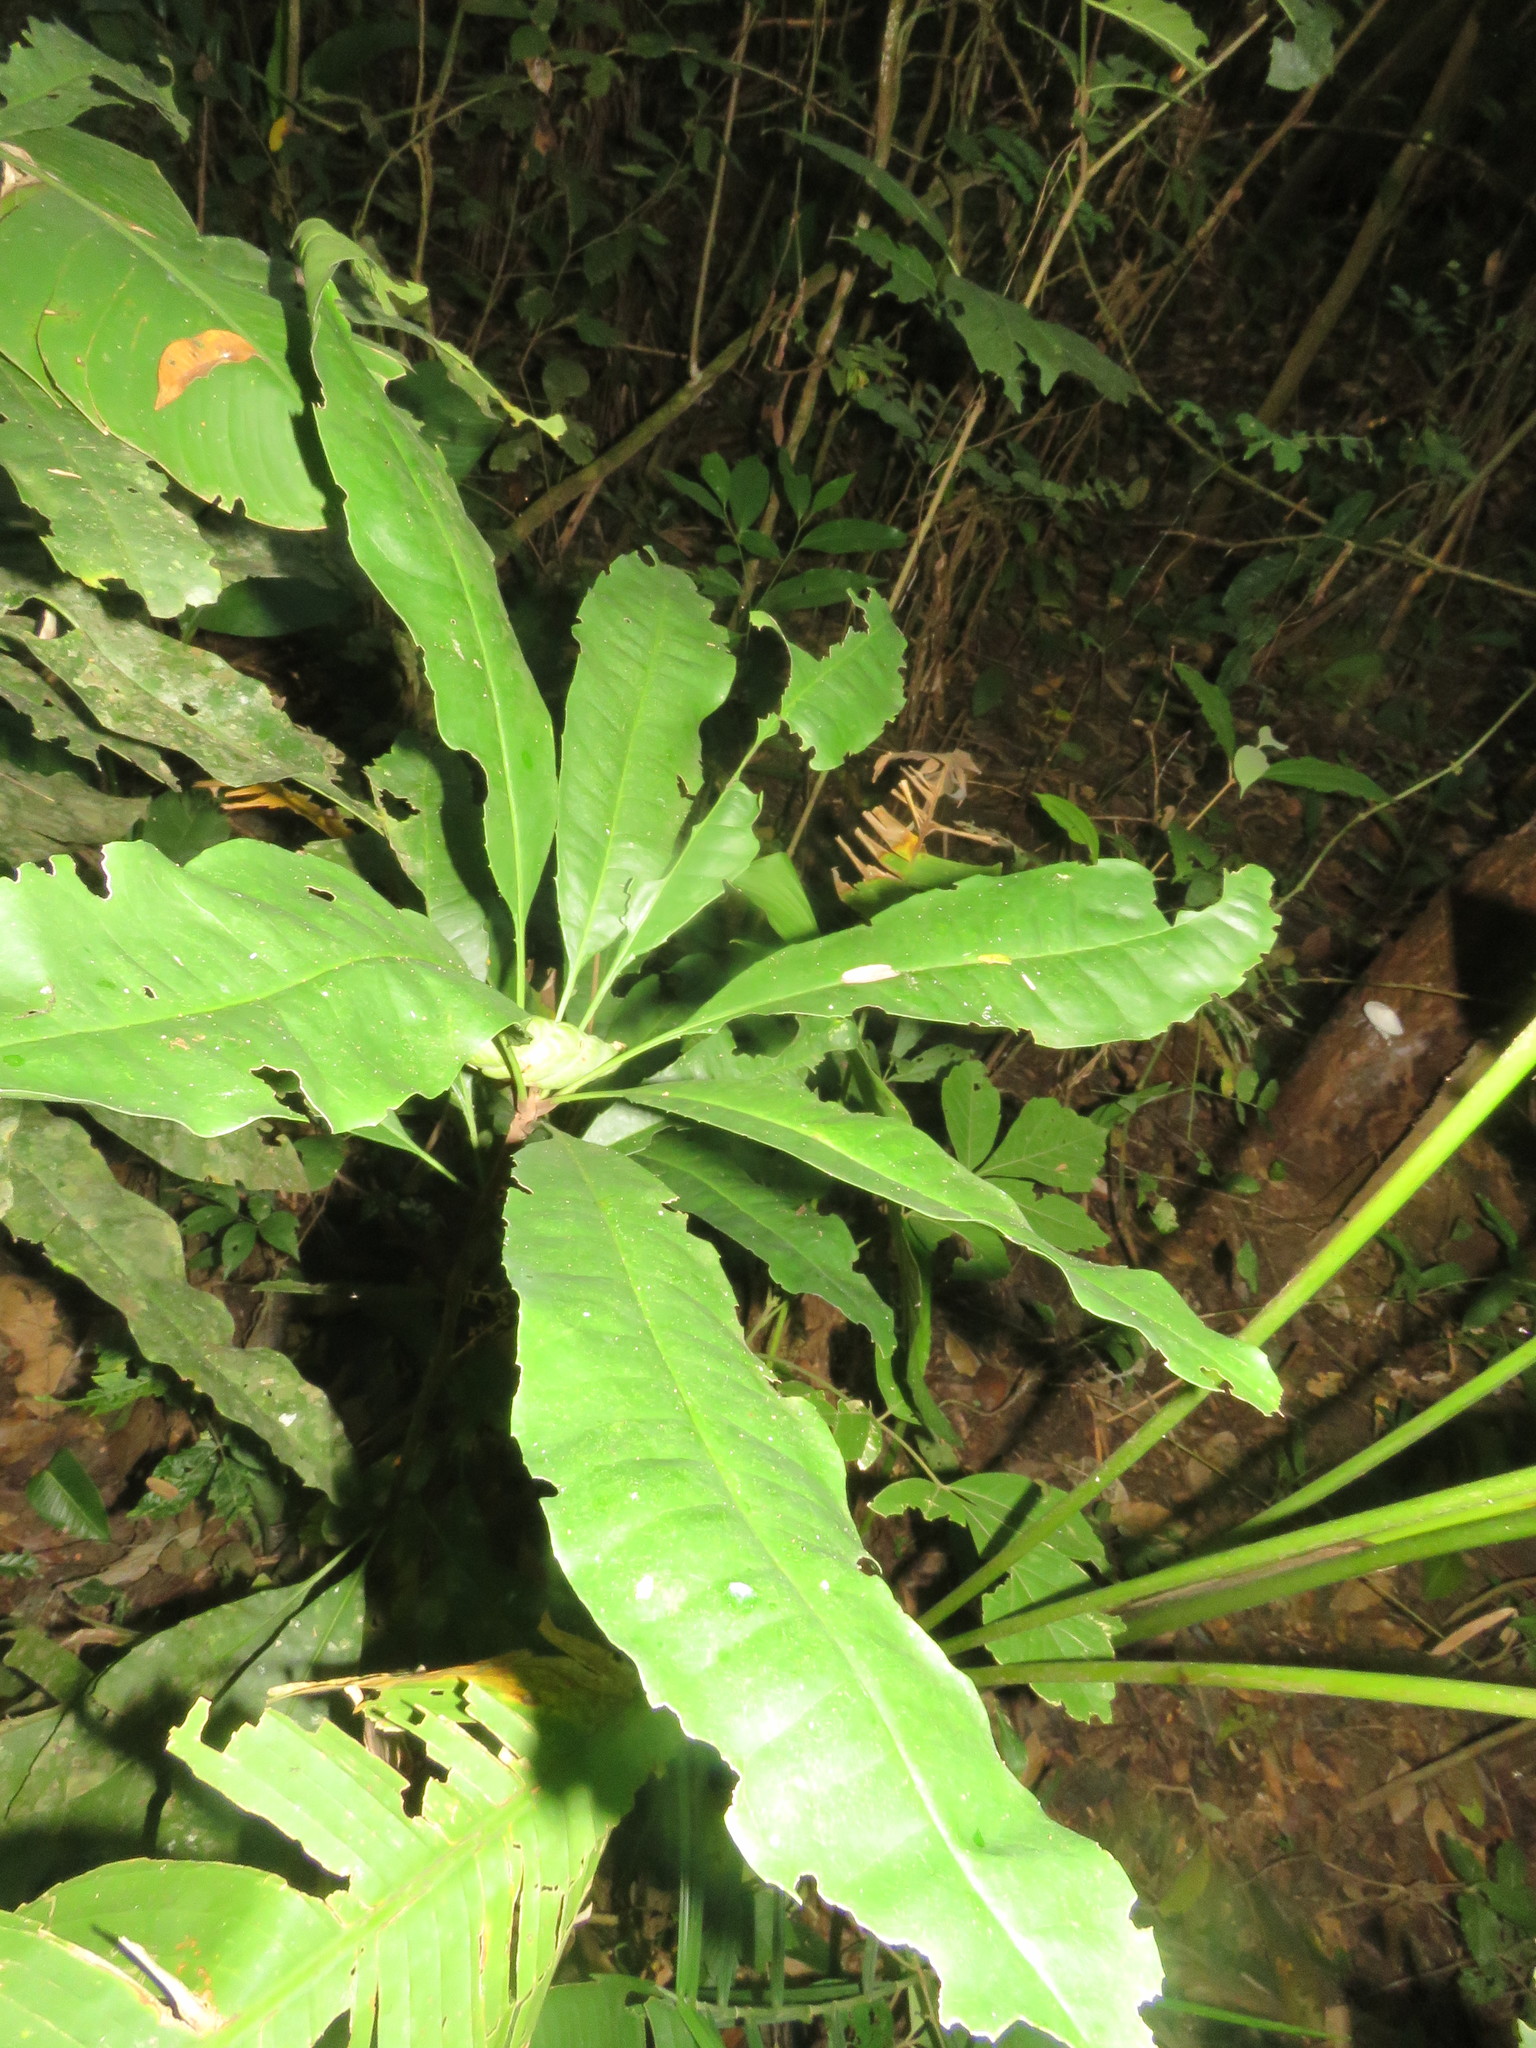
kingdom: Plantae
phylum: Tracheophyta
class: Magnoliopsida
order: Ericales
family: Primulaceae
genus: Clavija
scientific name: Clavija lancifolia
